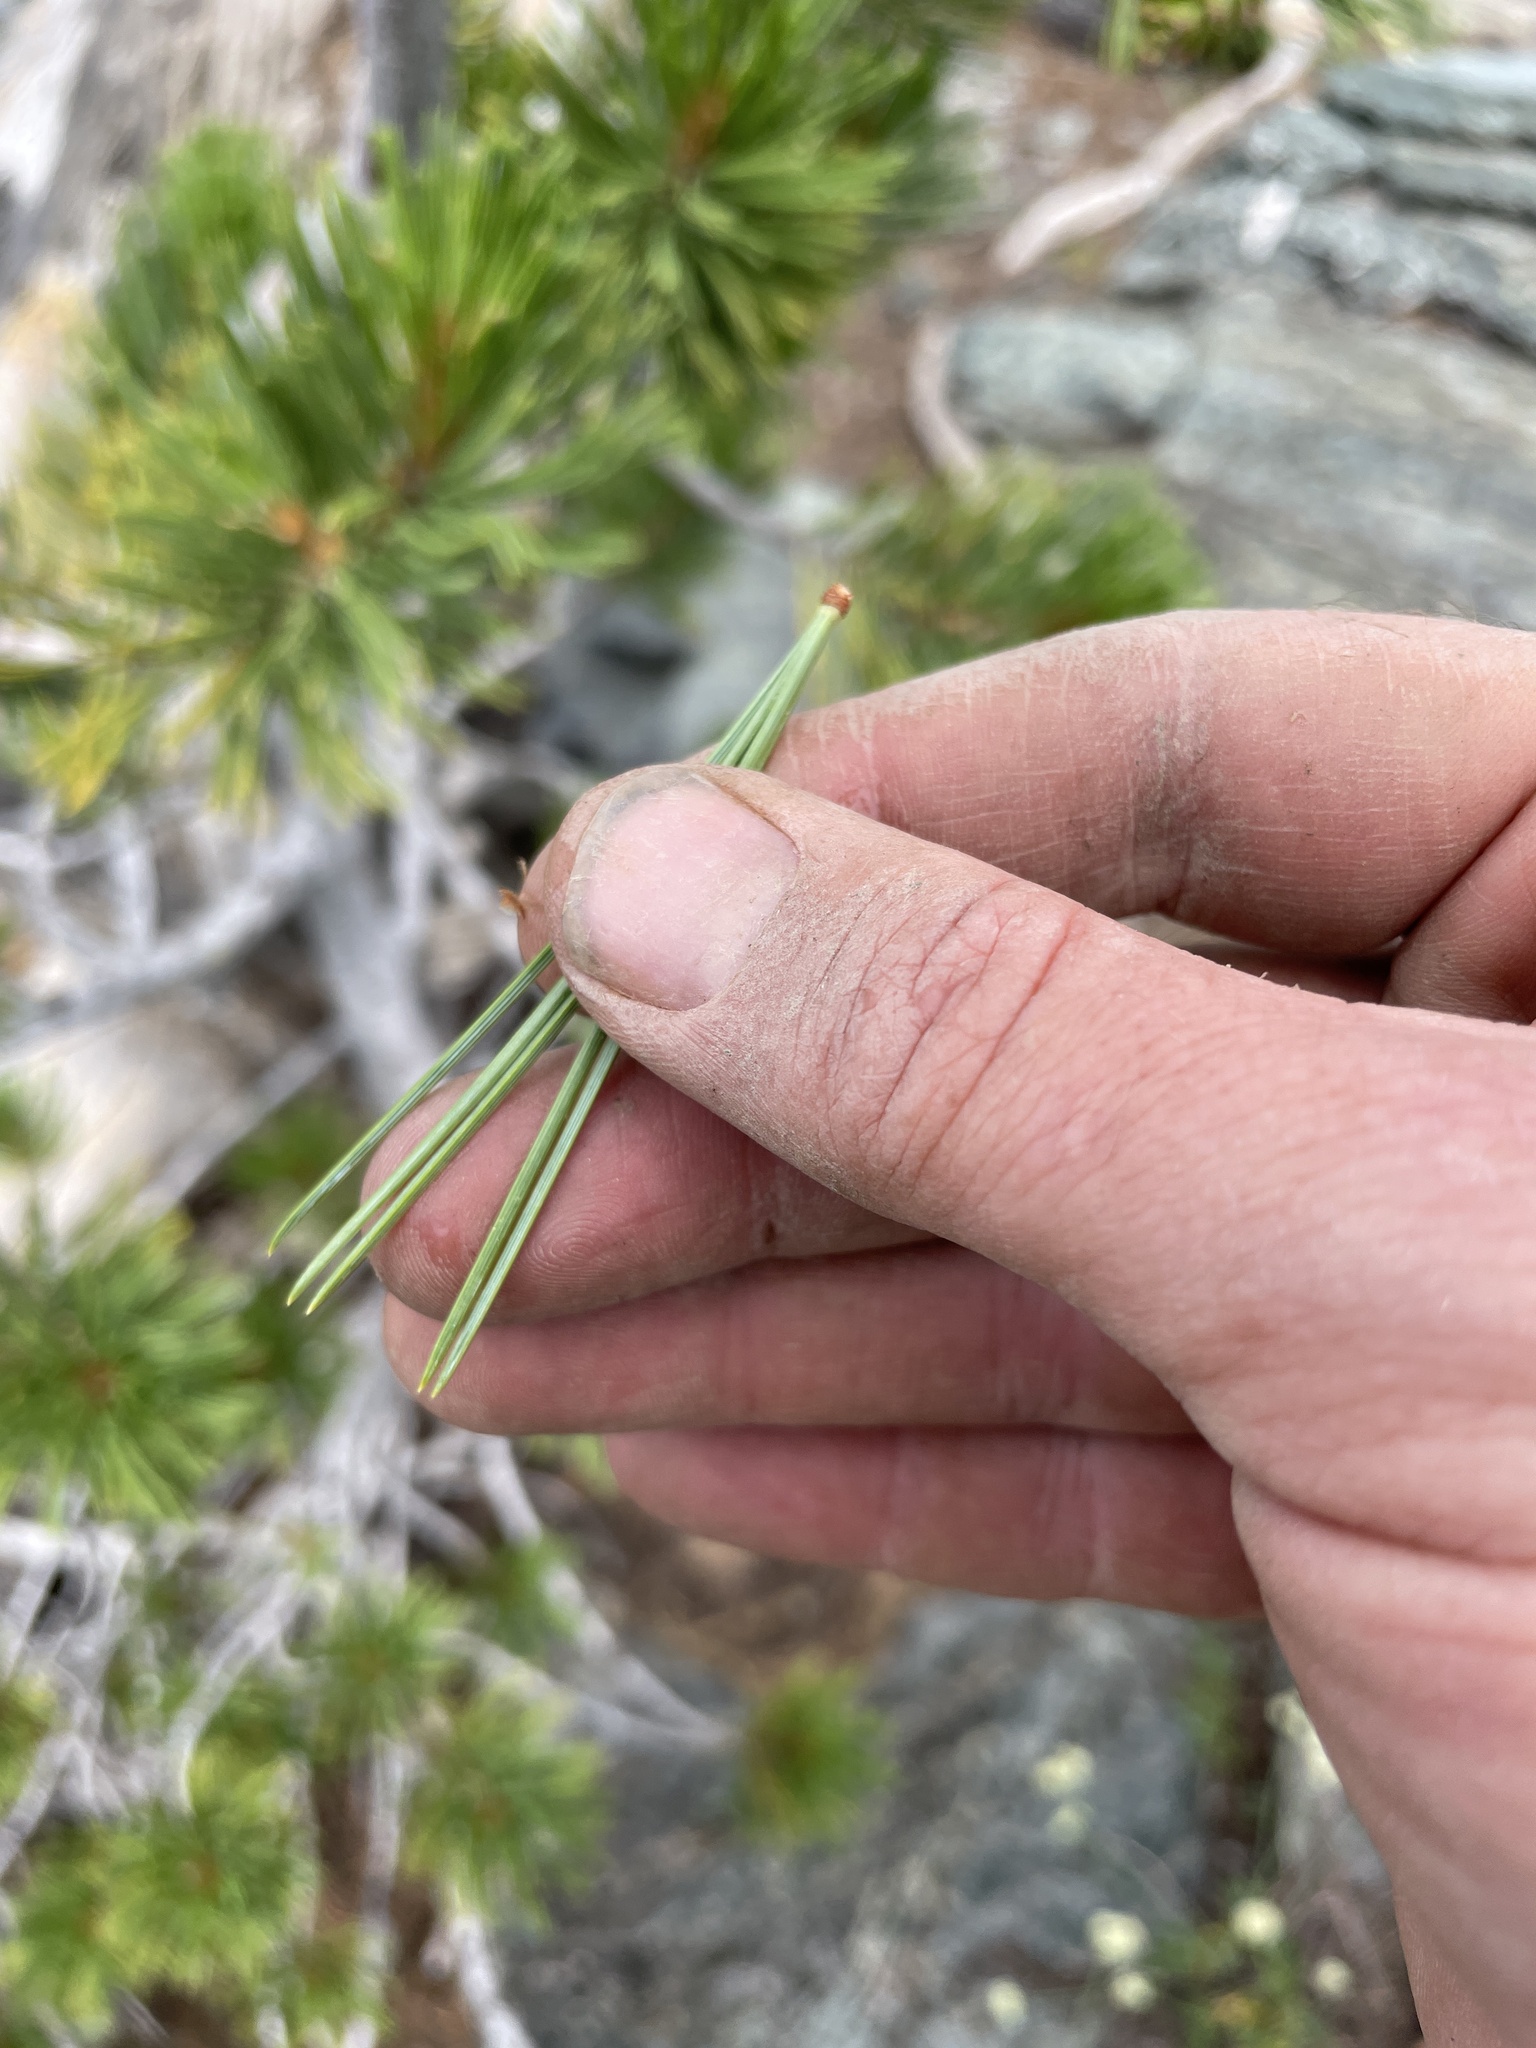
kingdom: Plantae
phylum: Tracheophyta
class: Pinopsida
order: Pinales
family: Pinaceae
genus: Pinus
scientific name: Pinus flexilis
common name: Limber pine
